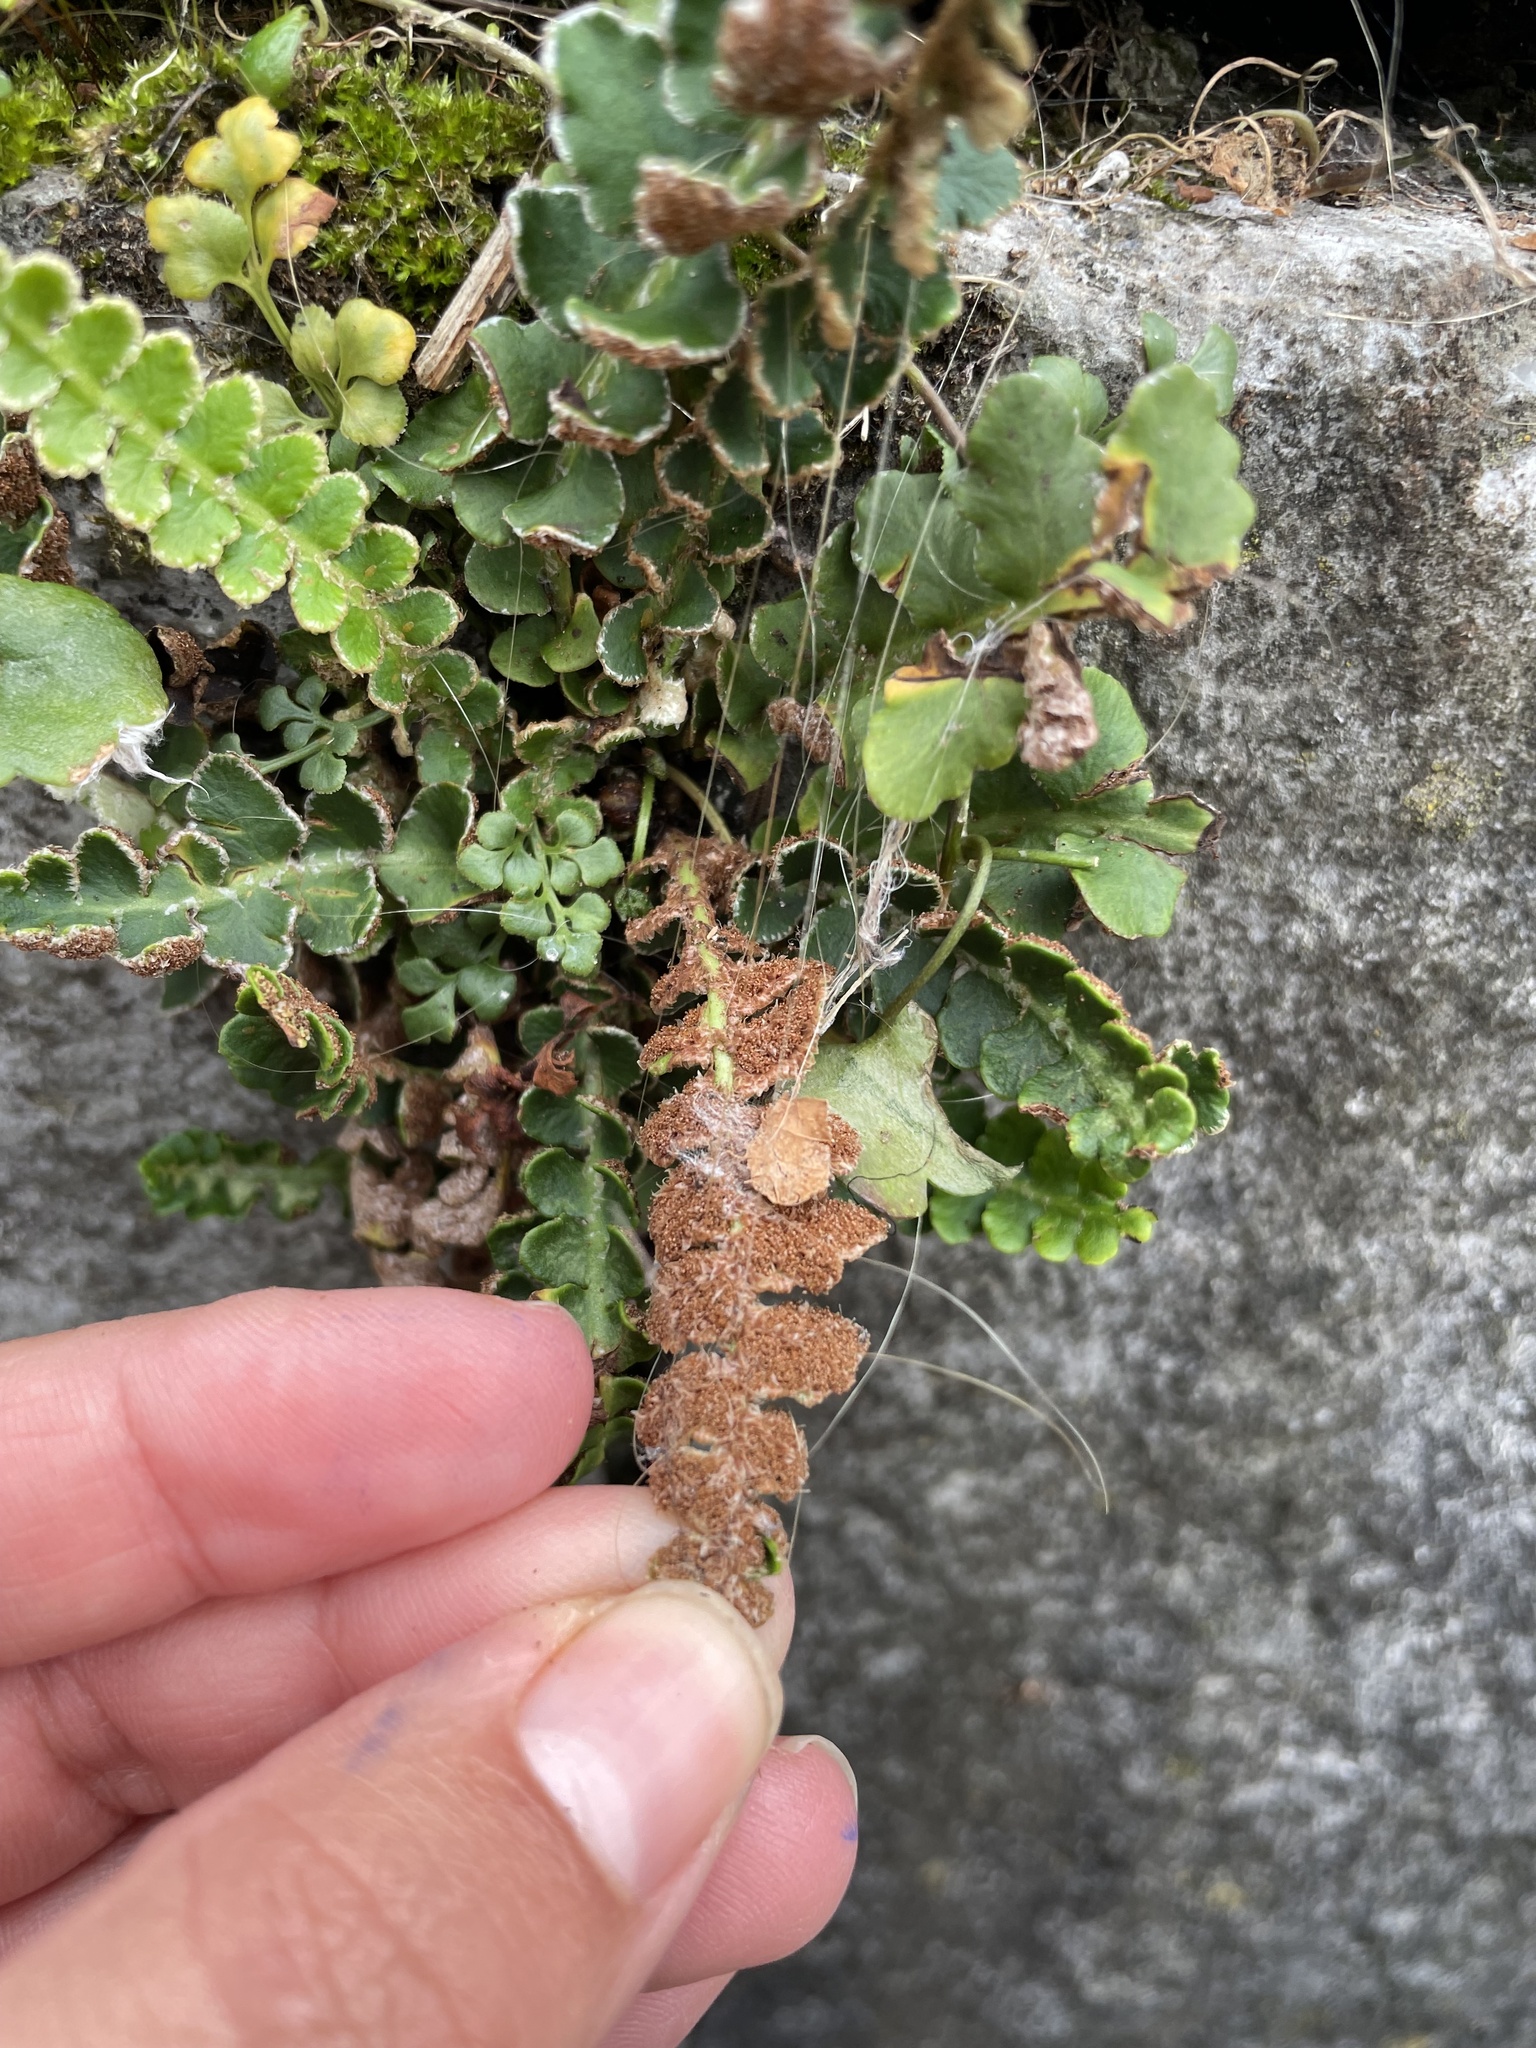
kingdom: Plantae
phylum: Tracheophyta
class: Polypodiopsida
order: Polypodiales
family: Aspleniaceae
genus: Asplenium
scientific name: Asplenium ceterach
